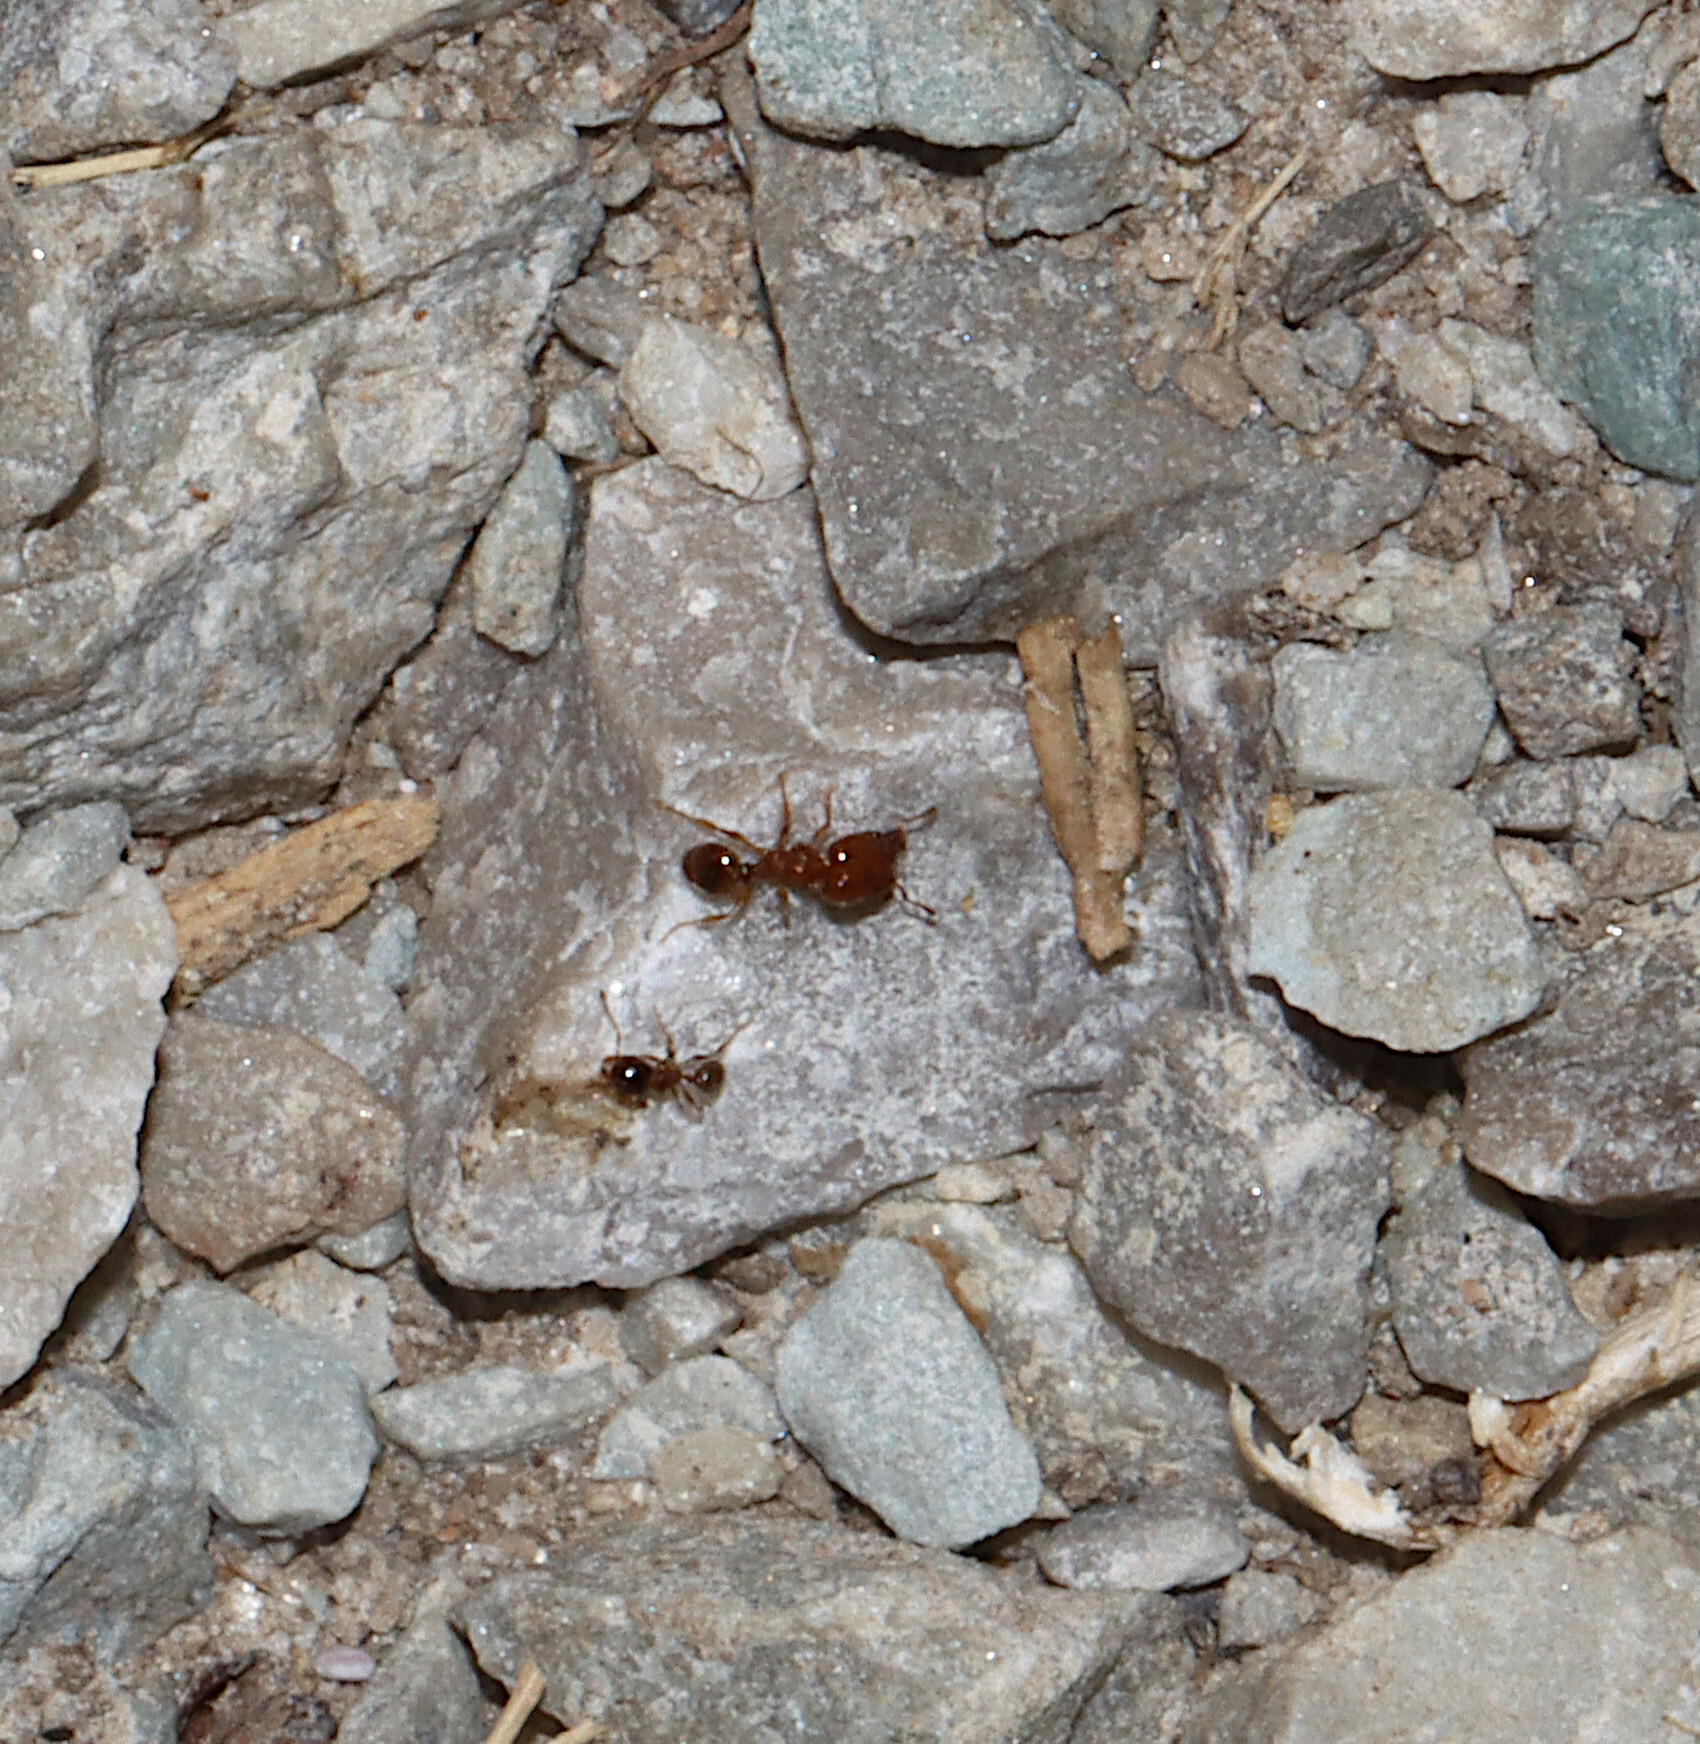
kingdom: Animalia
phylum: Arthropoda
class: Insecta
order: Hymenoptera
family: Formicidae
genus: Pheidole
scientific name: Pheidole bicarinata
